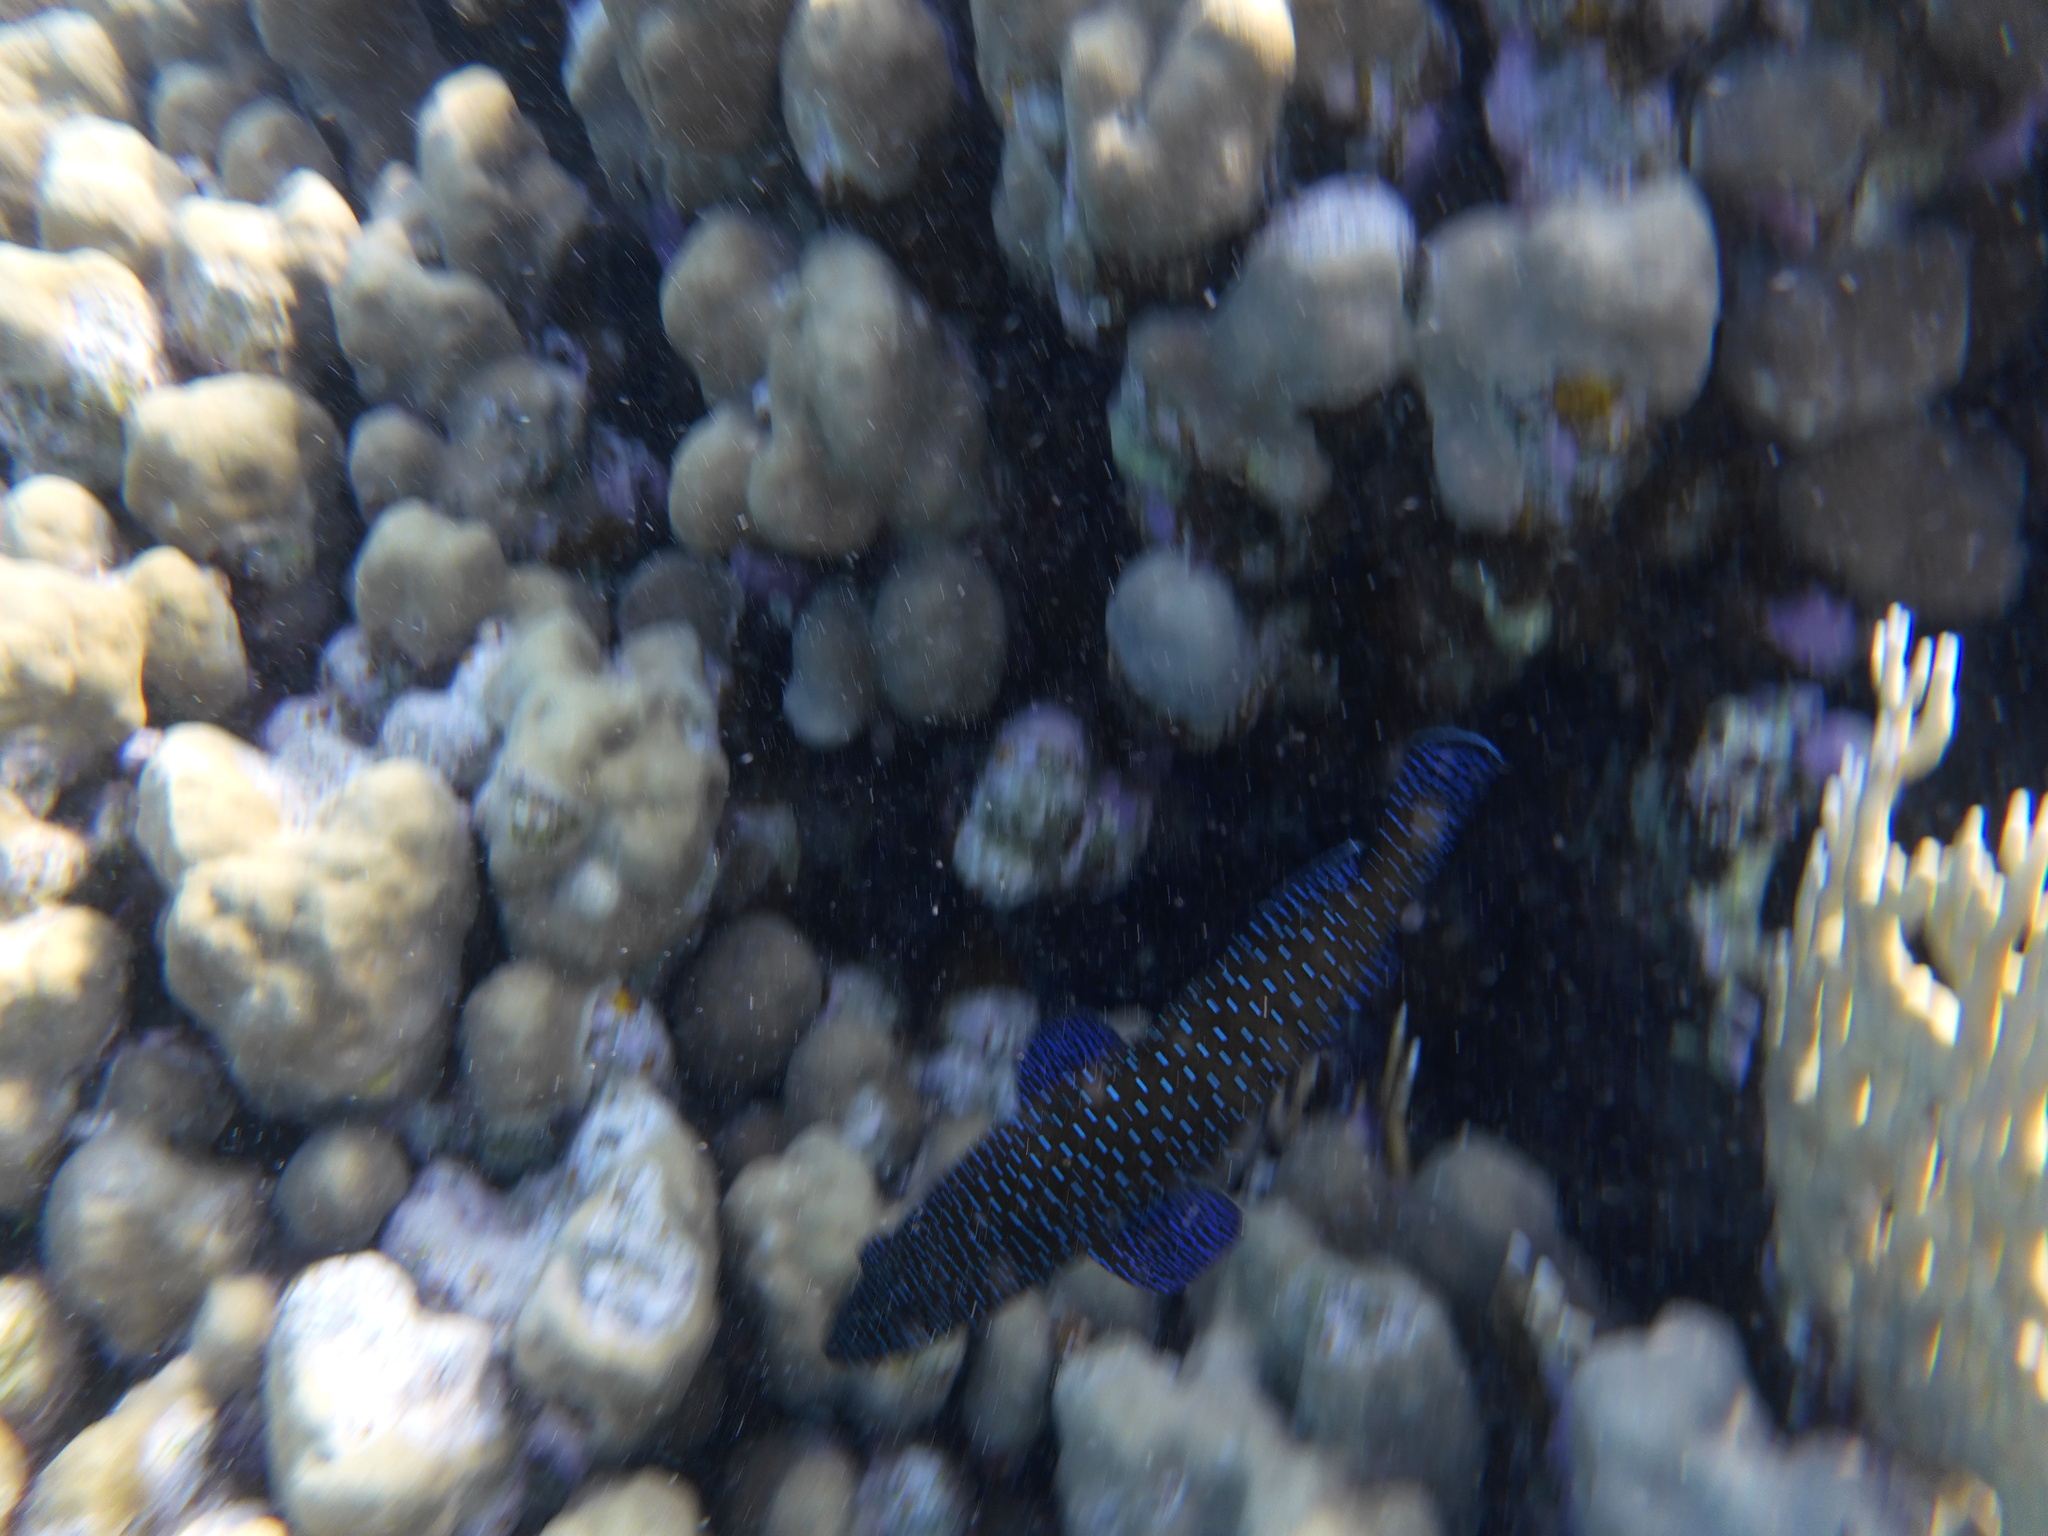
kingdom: Animalia
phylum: Chordata
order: Perciformes
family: Serranidae
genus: Cephalopholis
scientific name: Cephalopholis argus
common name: Peacock grouper
